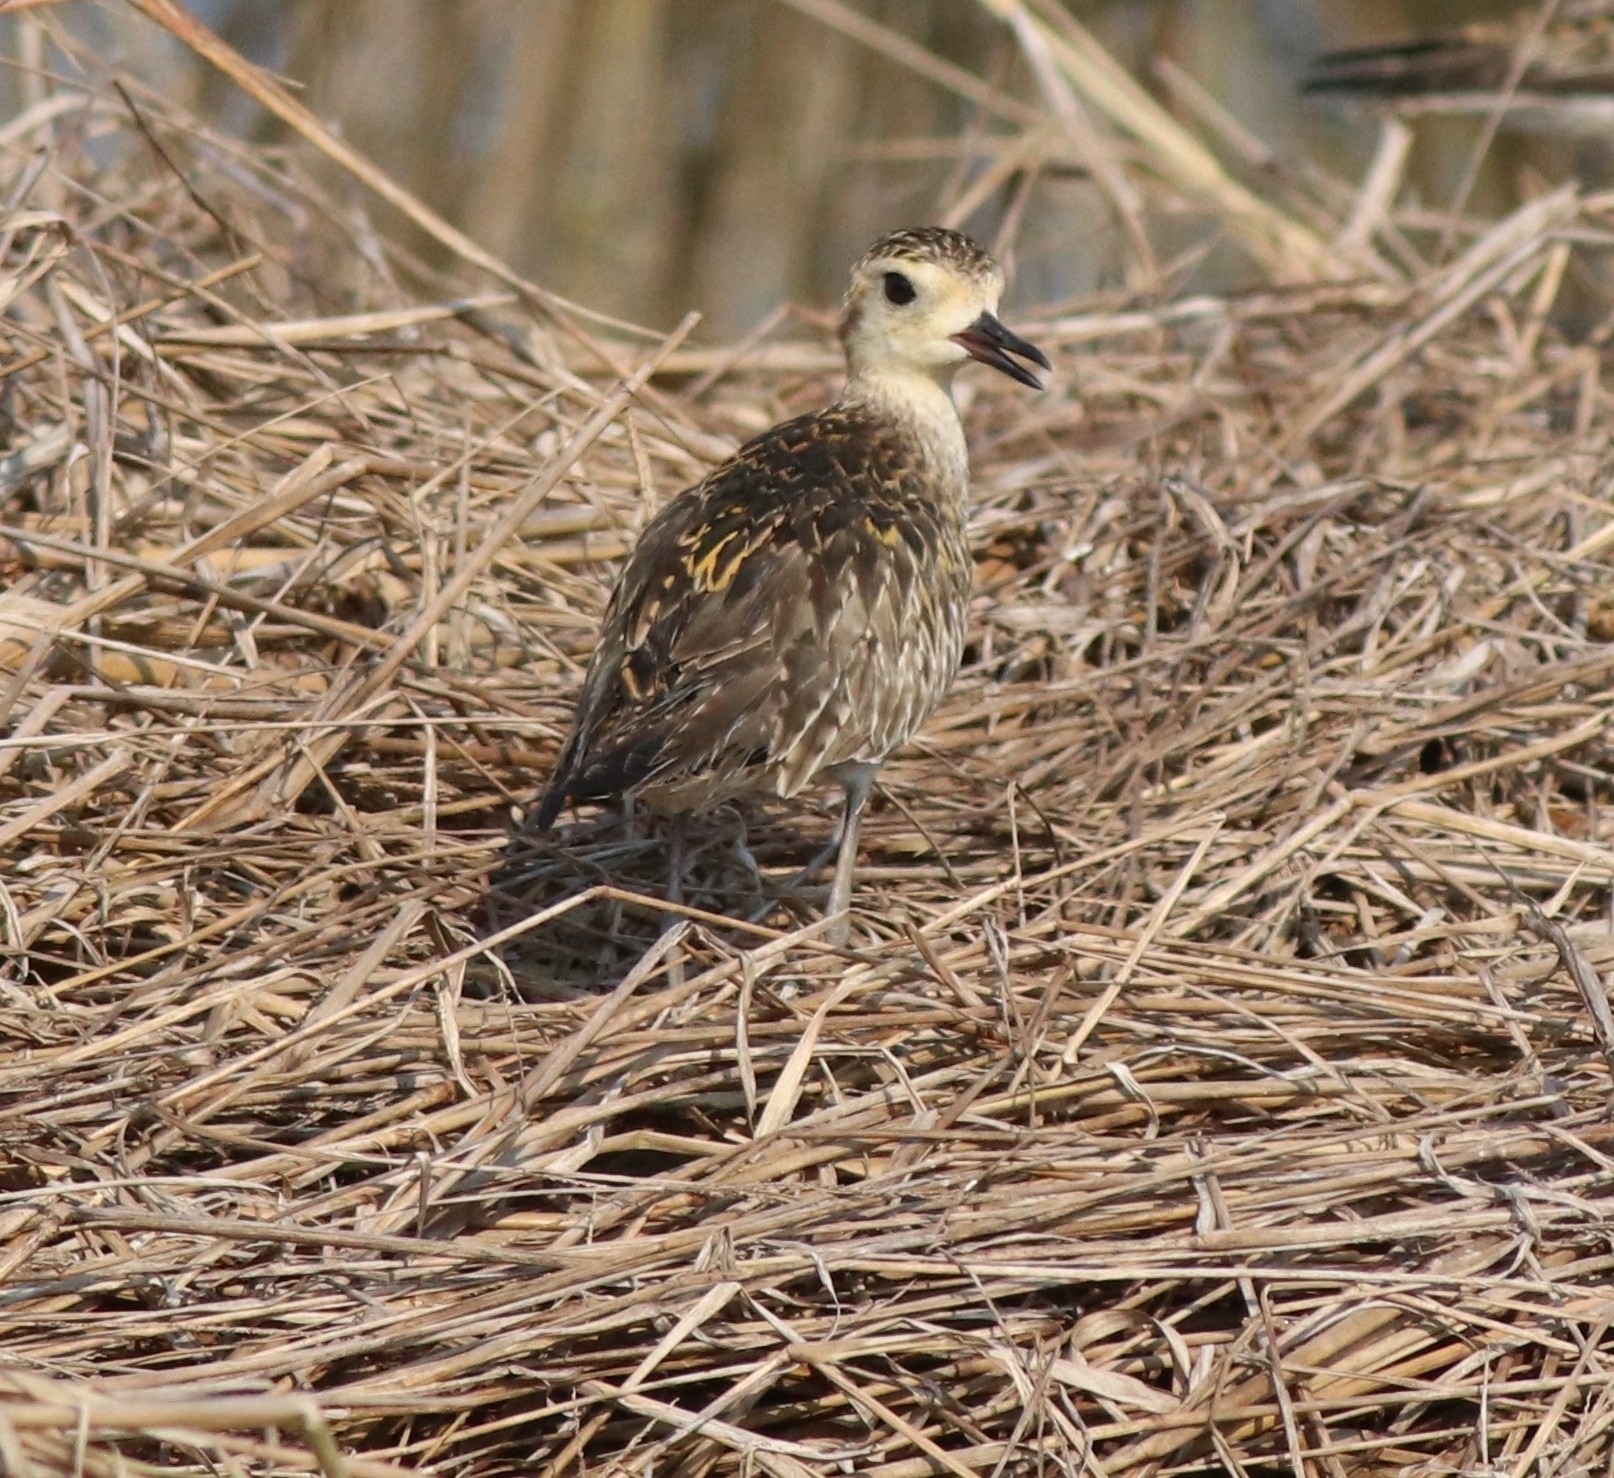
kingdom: Animalia
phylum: Chordata
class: Aves
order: Charadriiformes
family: Charadriidae
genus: Pluvialis
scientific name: Pluvialis fulva
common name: Pacific golden plover
